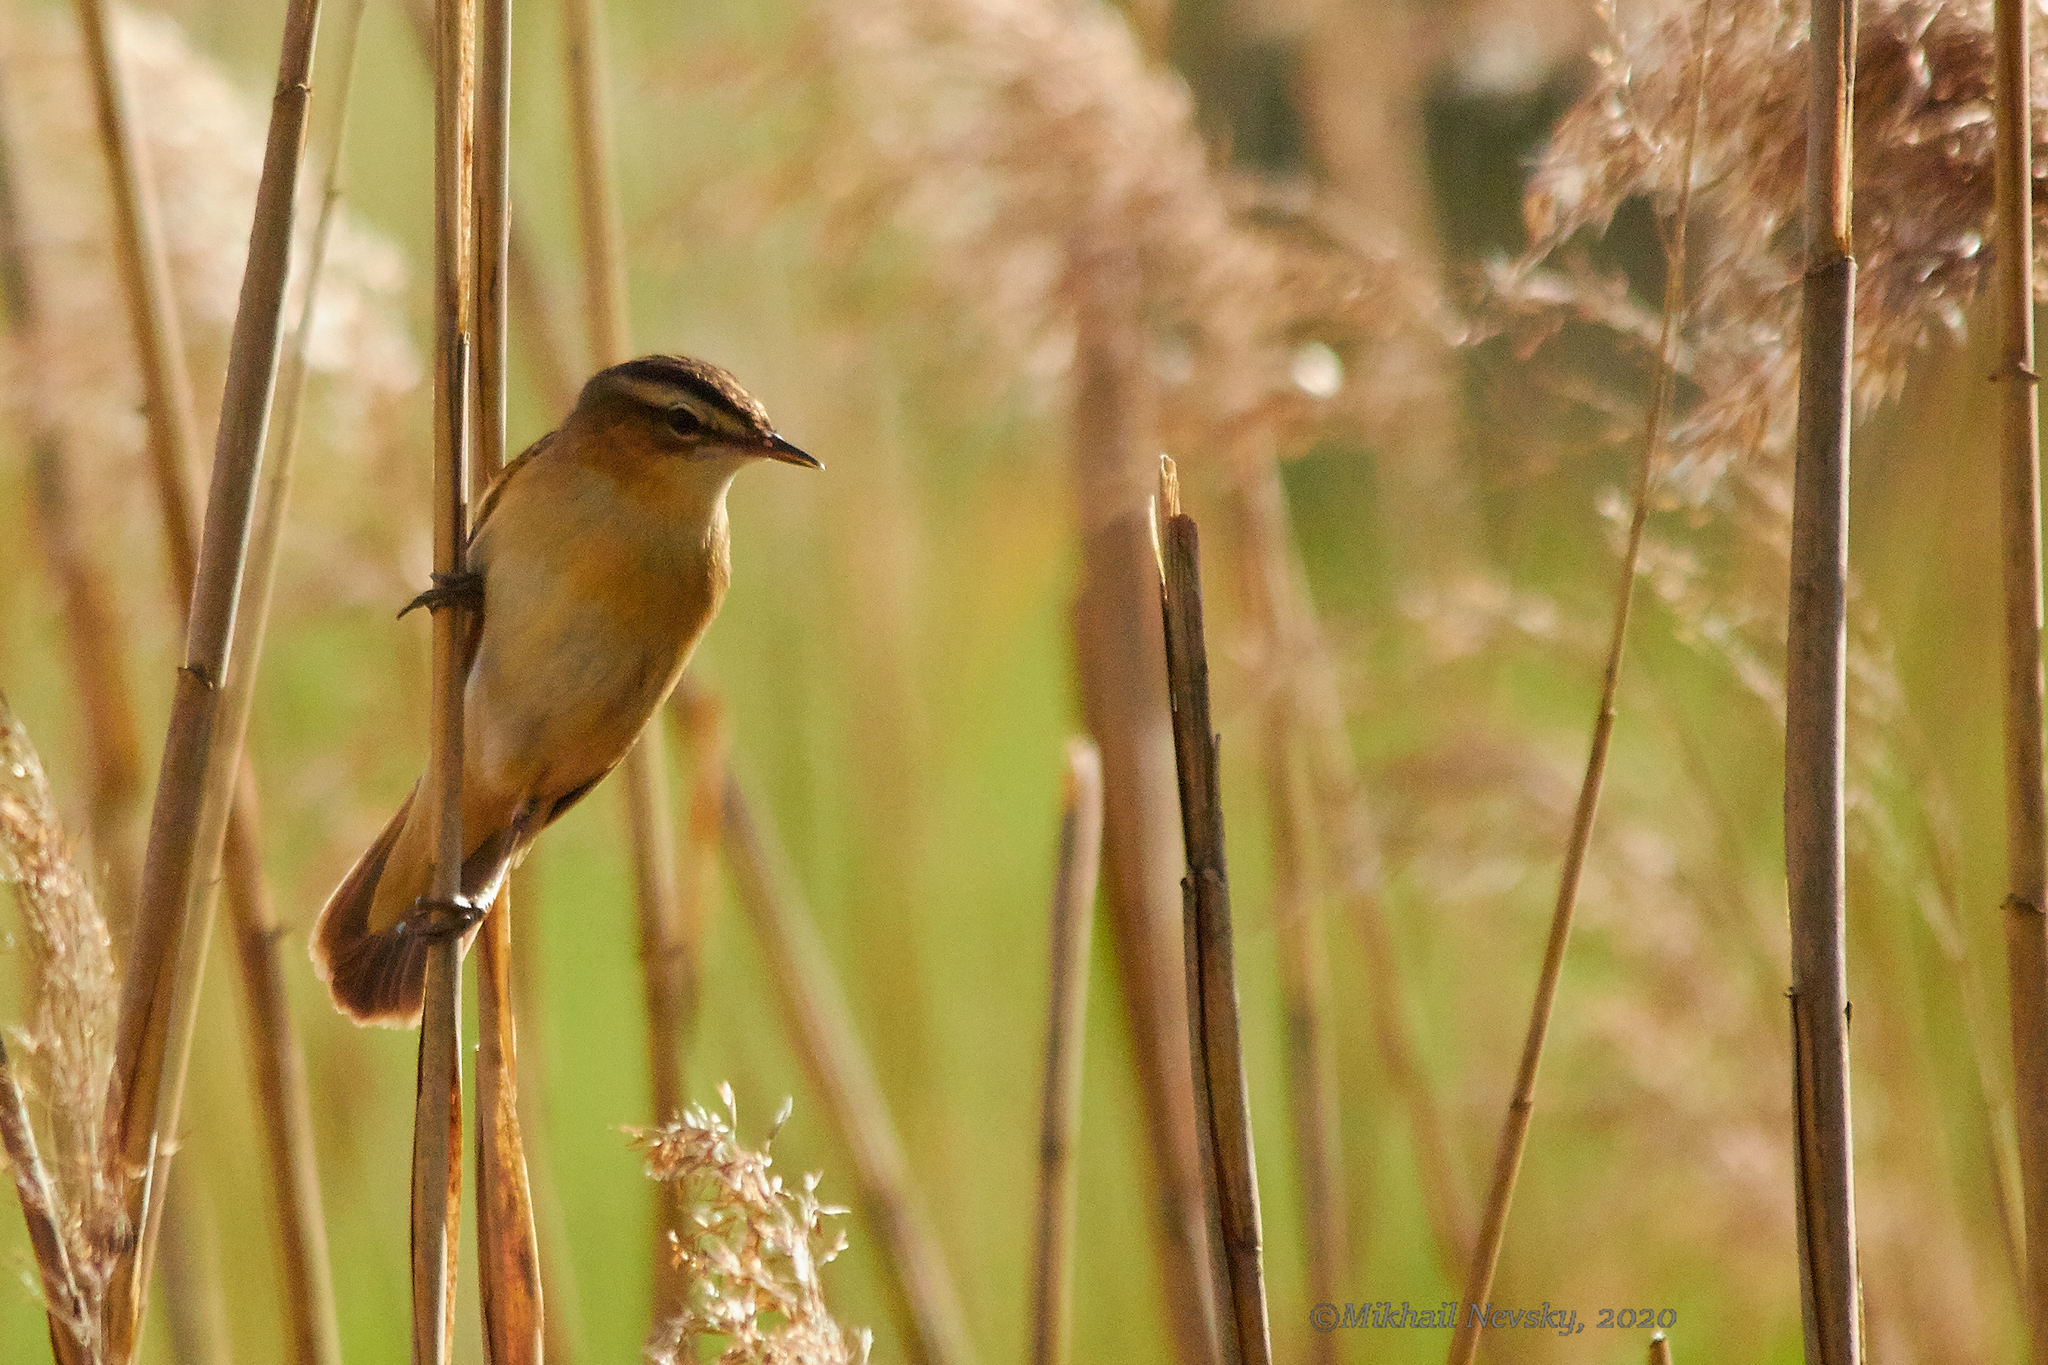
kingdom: Animalia
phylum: Chordata
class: Aves
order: Passeriformes
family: Acrocephalidae
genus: Acrocephalus
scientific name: Acrocephalus schoenobaenus
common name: Sedge warbler
